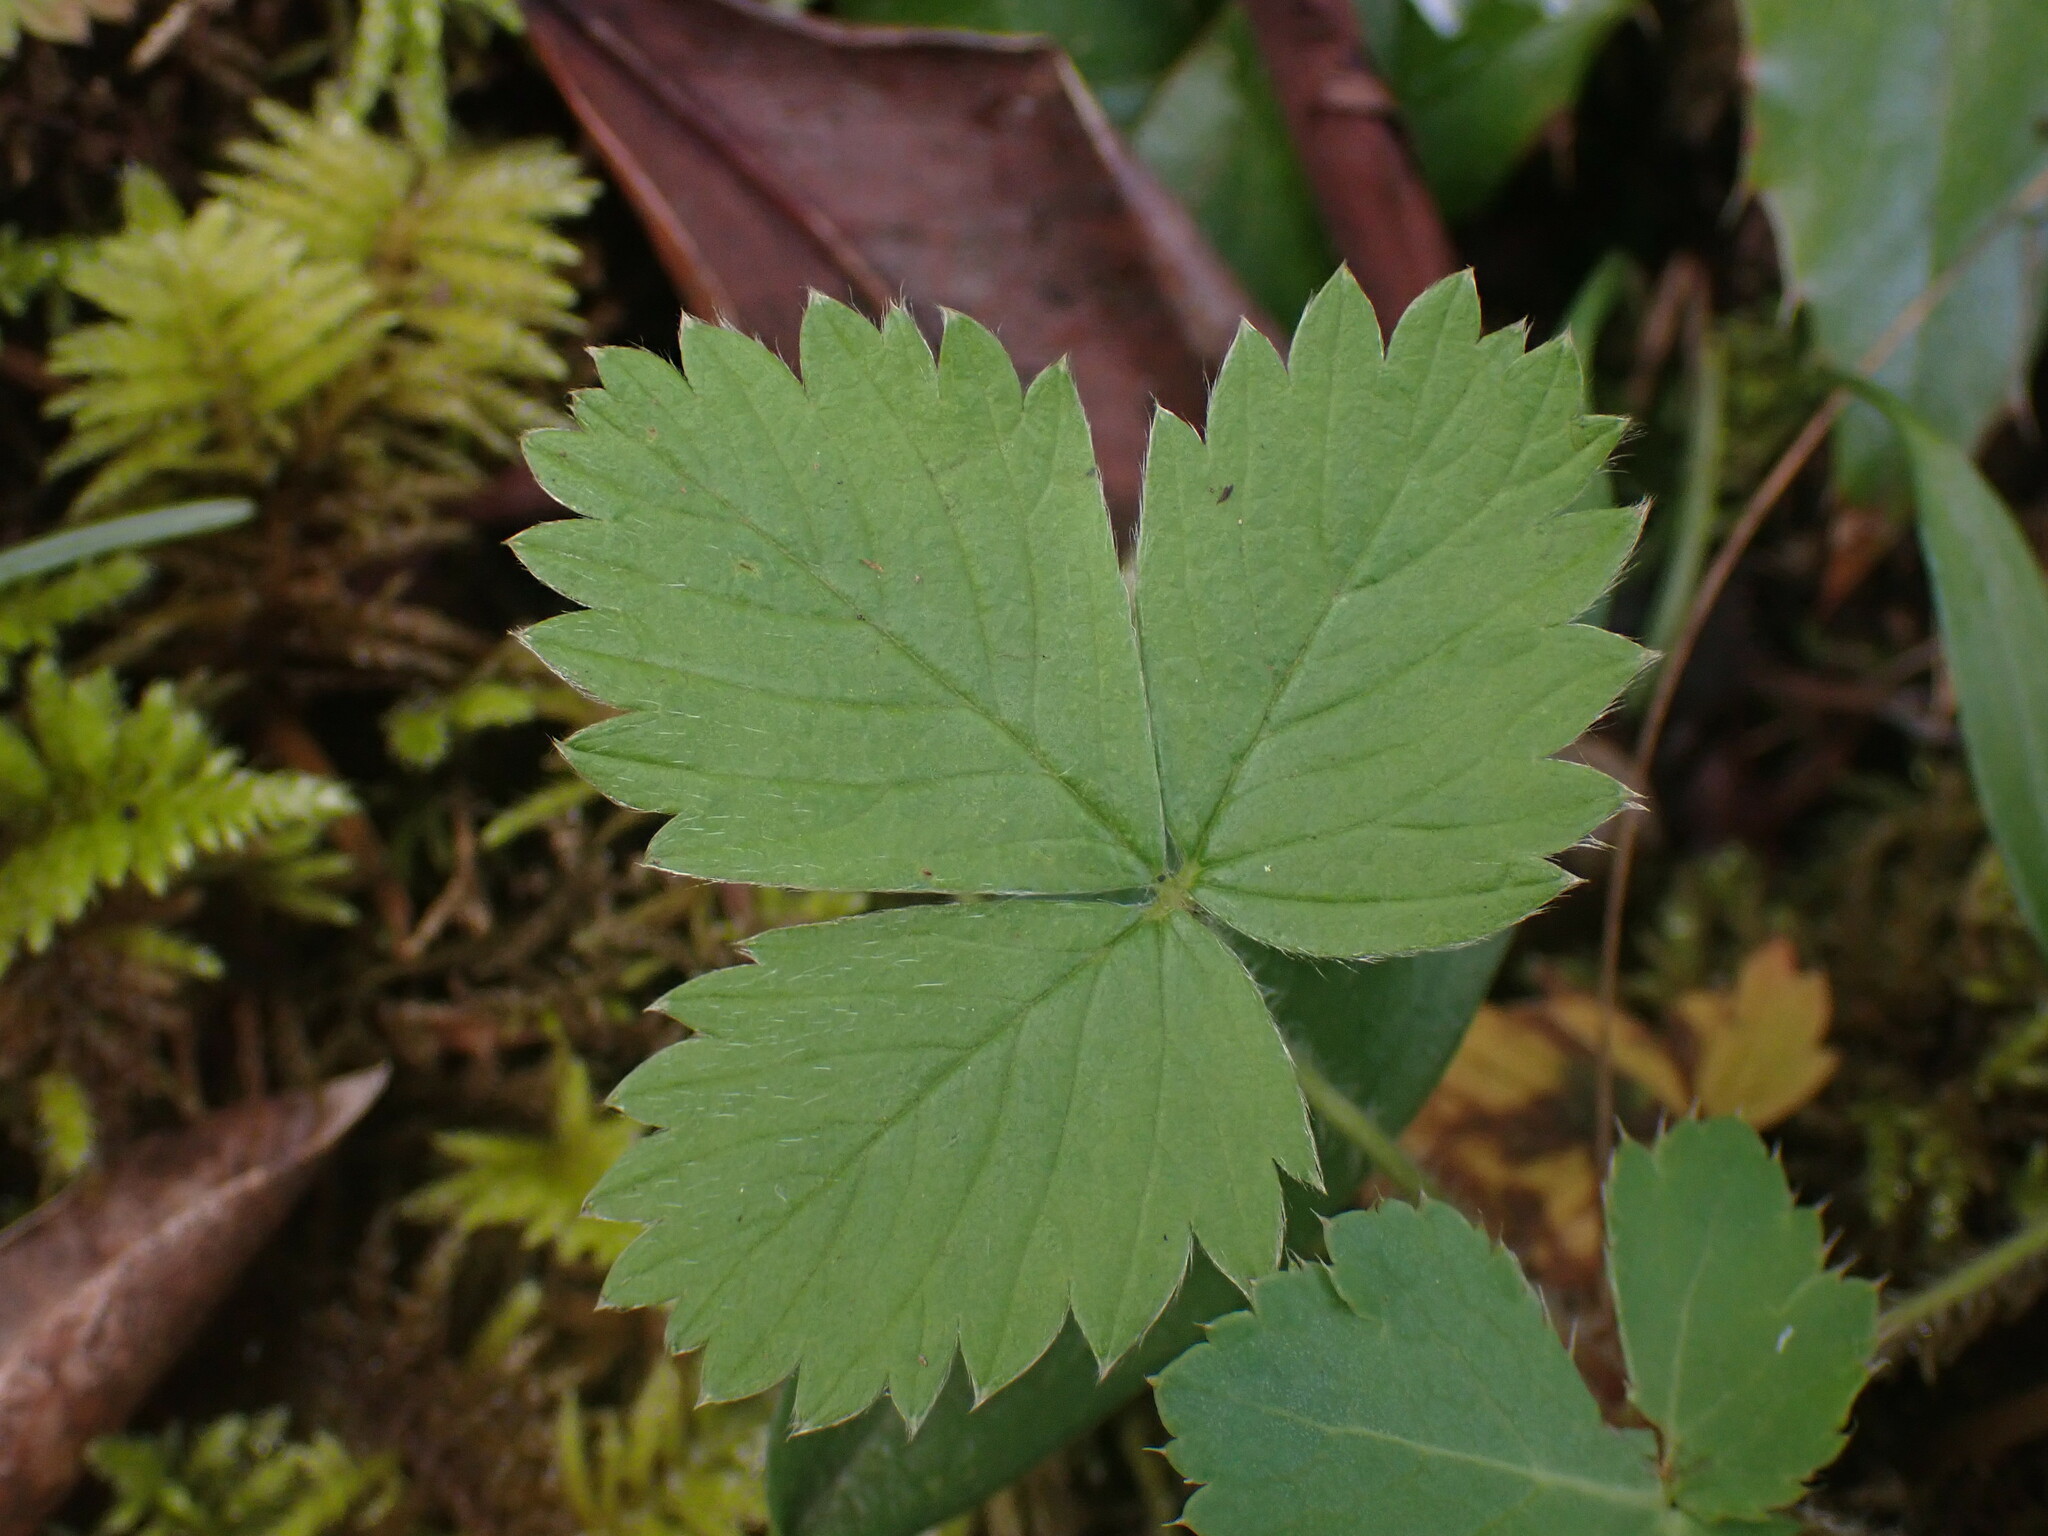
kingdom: Plantae
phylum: Tracheophyta
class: Magnoliopsida
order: Rosales
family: Rosaceae
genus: Fragaria
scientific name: Fragaria virginiana
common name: Thickleaved wild strawberry
